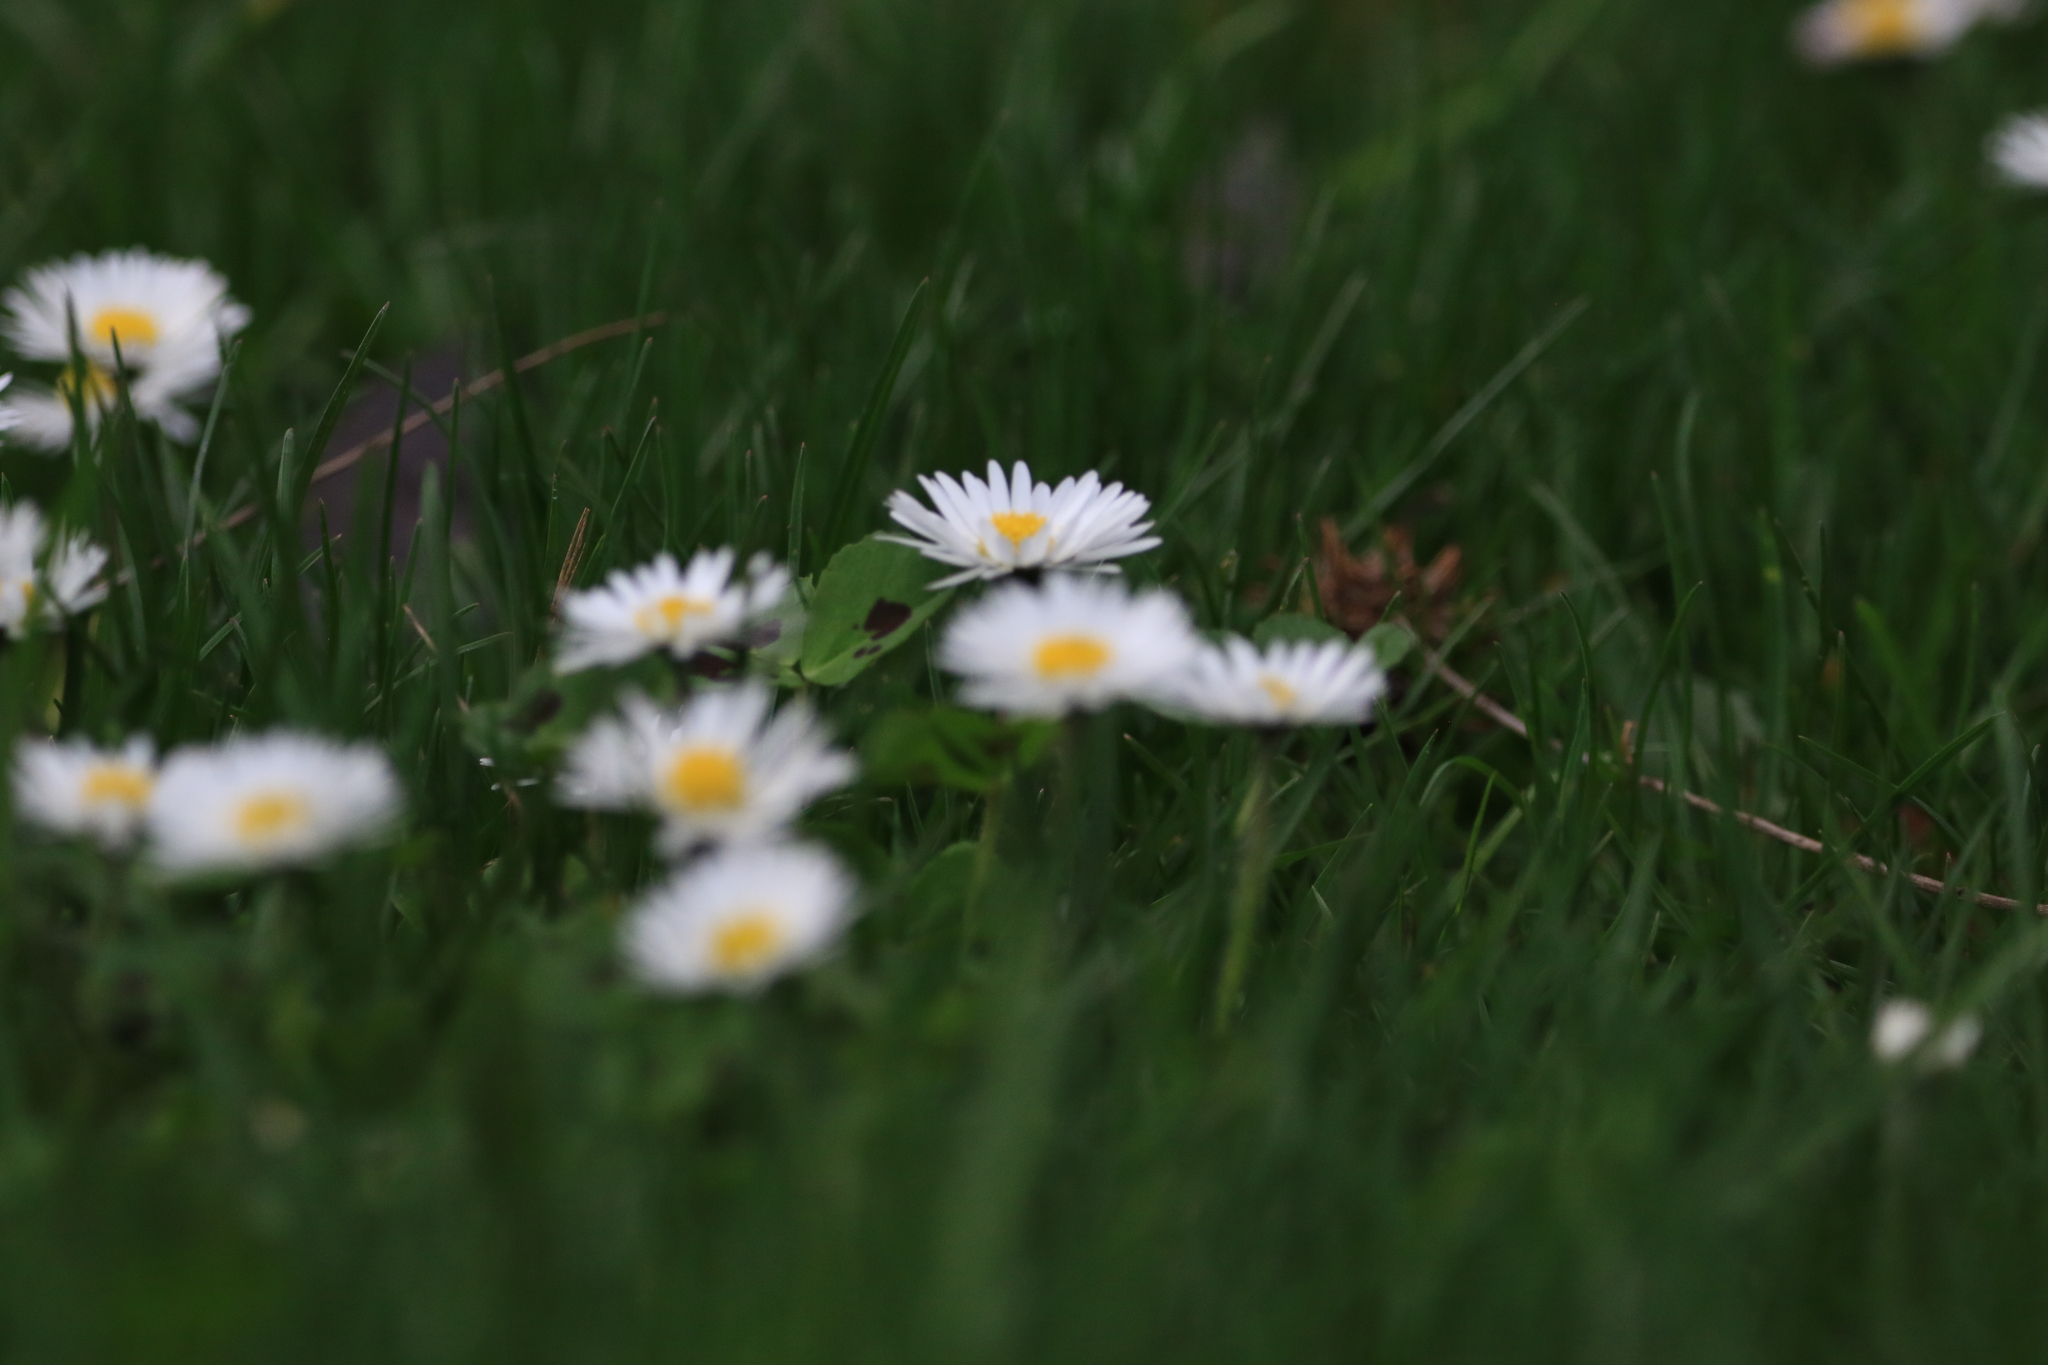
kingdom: Plantae
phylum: Tracheophyta
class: Magnoliopsida
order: Asterales
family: Asteraceae
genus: Bellis
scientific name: Bellis perennis
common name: Lawndaisy
